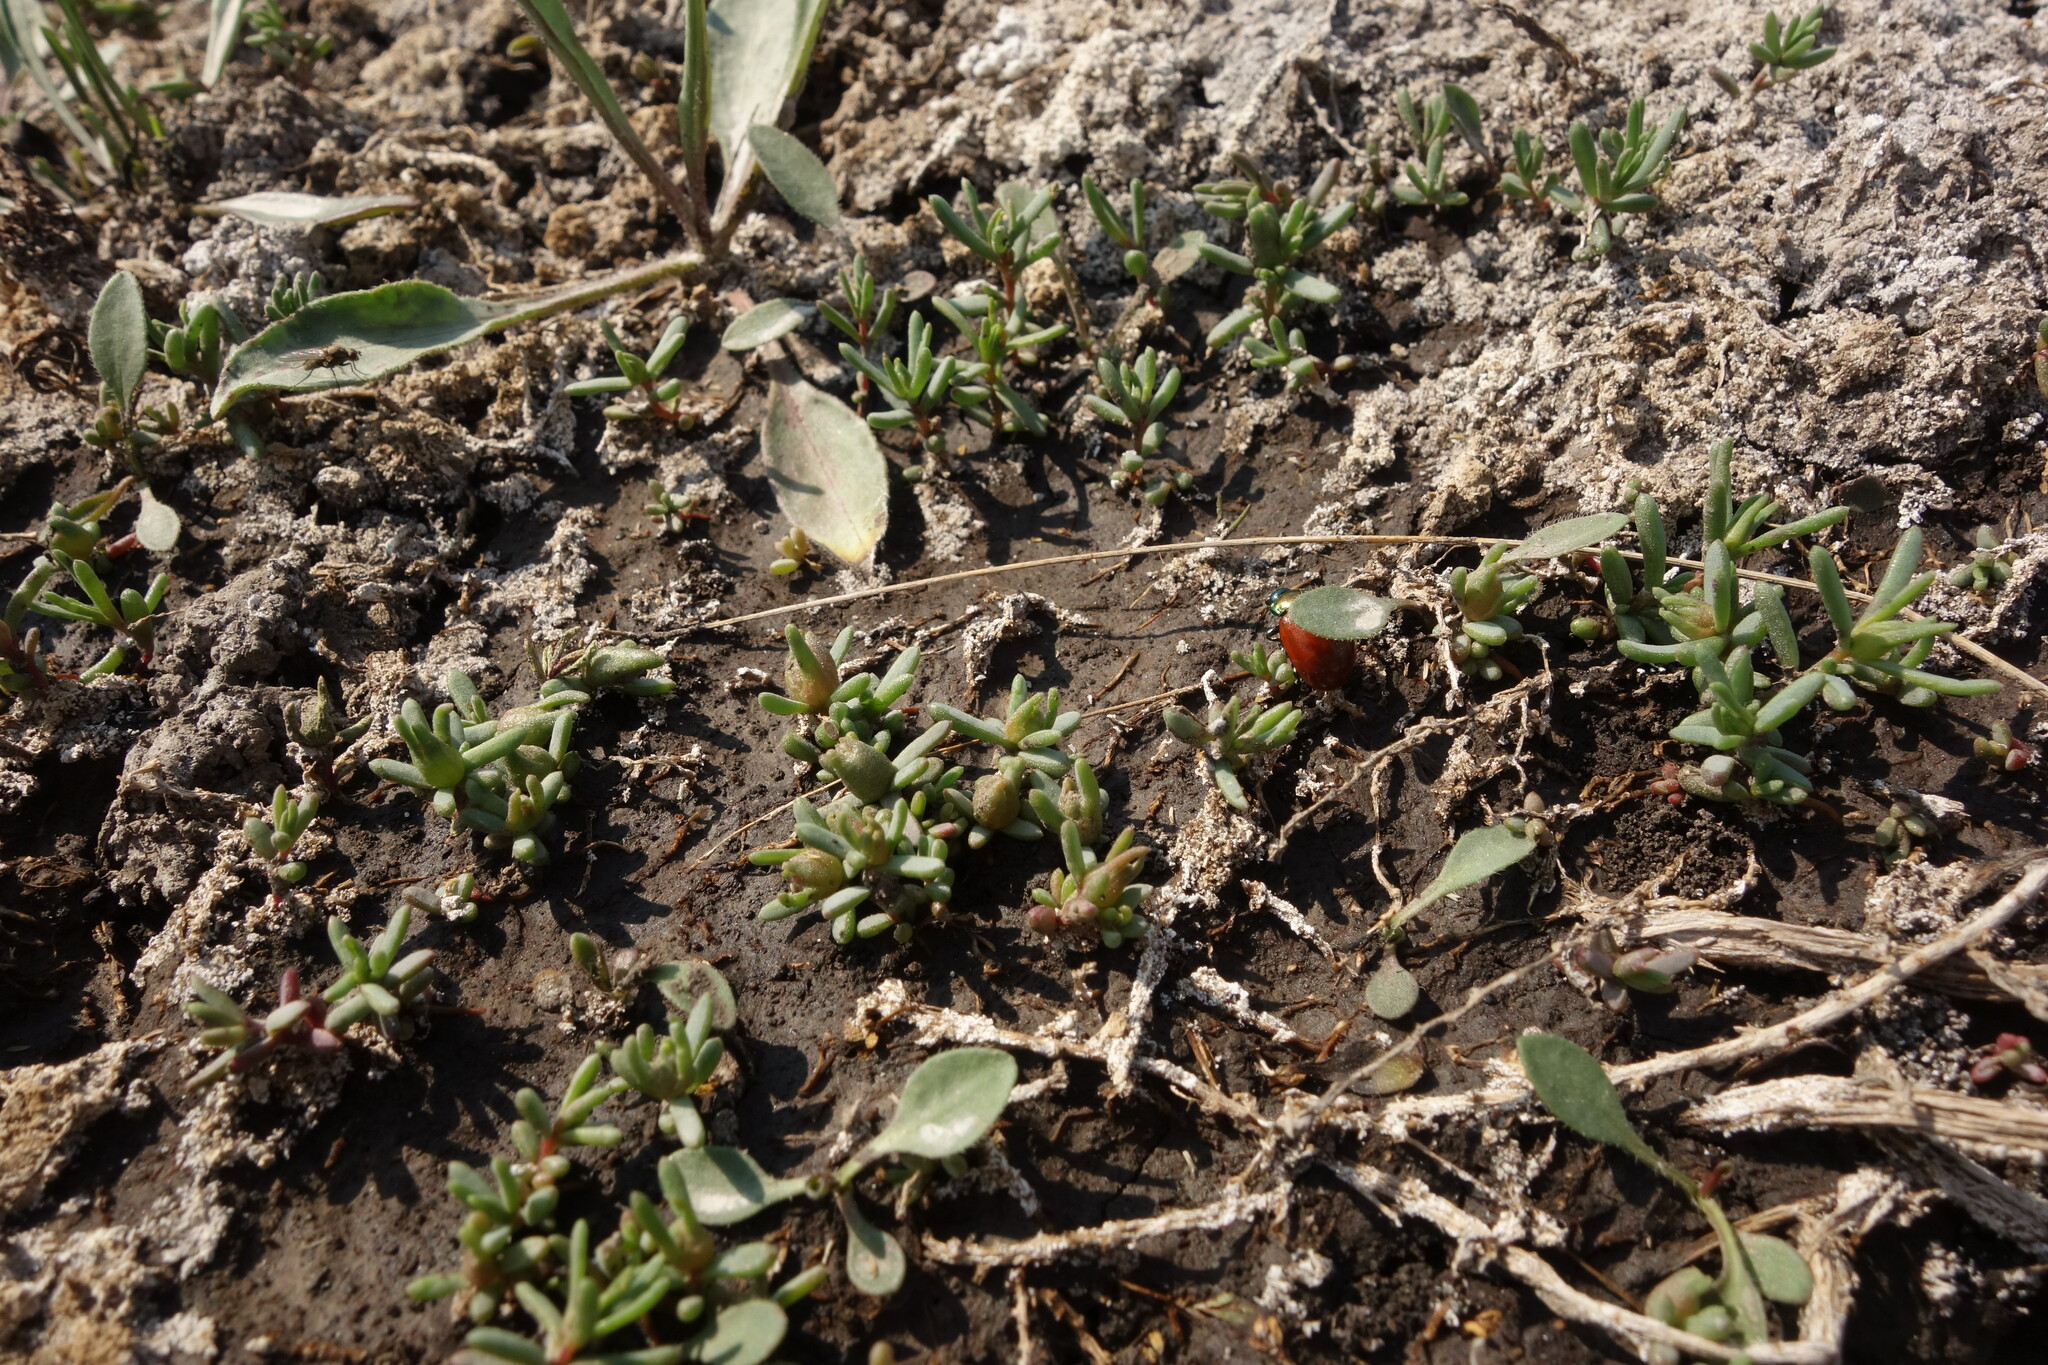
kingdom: Plantae
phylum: Tracheophyta
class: Magnoliopsida
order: Caryophyllales
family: Amaranthaceae
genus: Suaeda
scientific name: Suaeda prostrata
